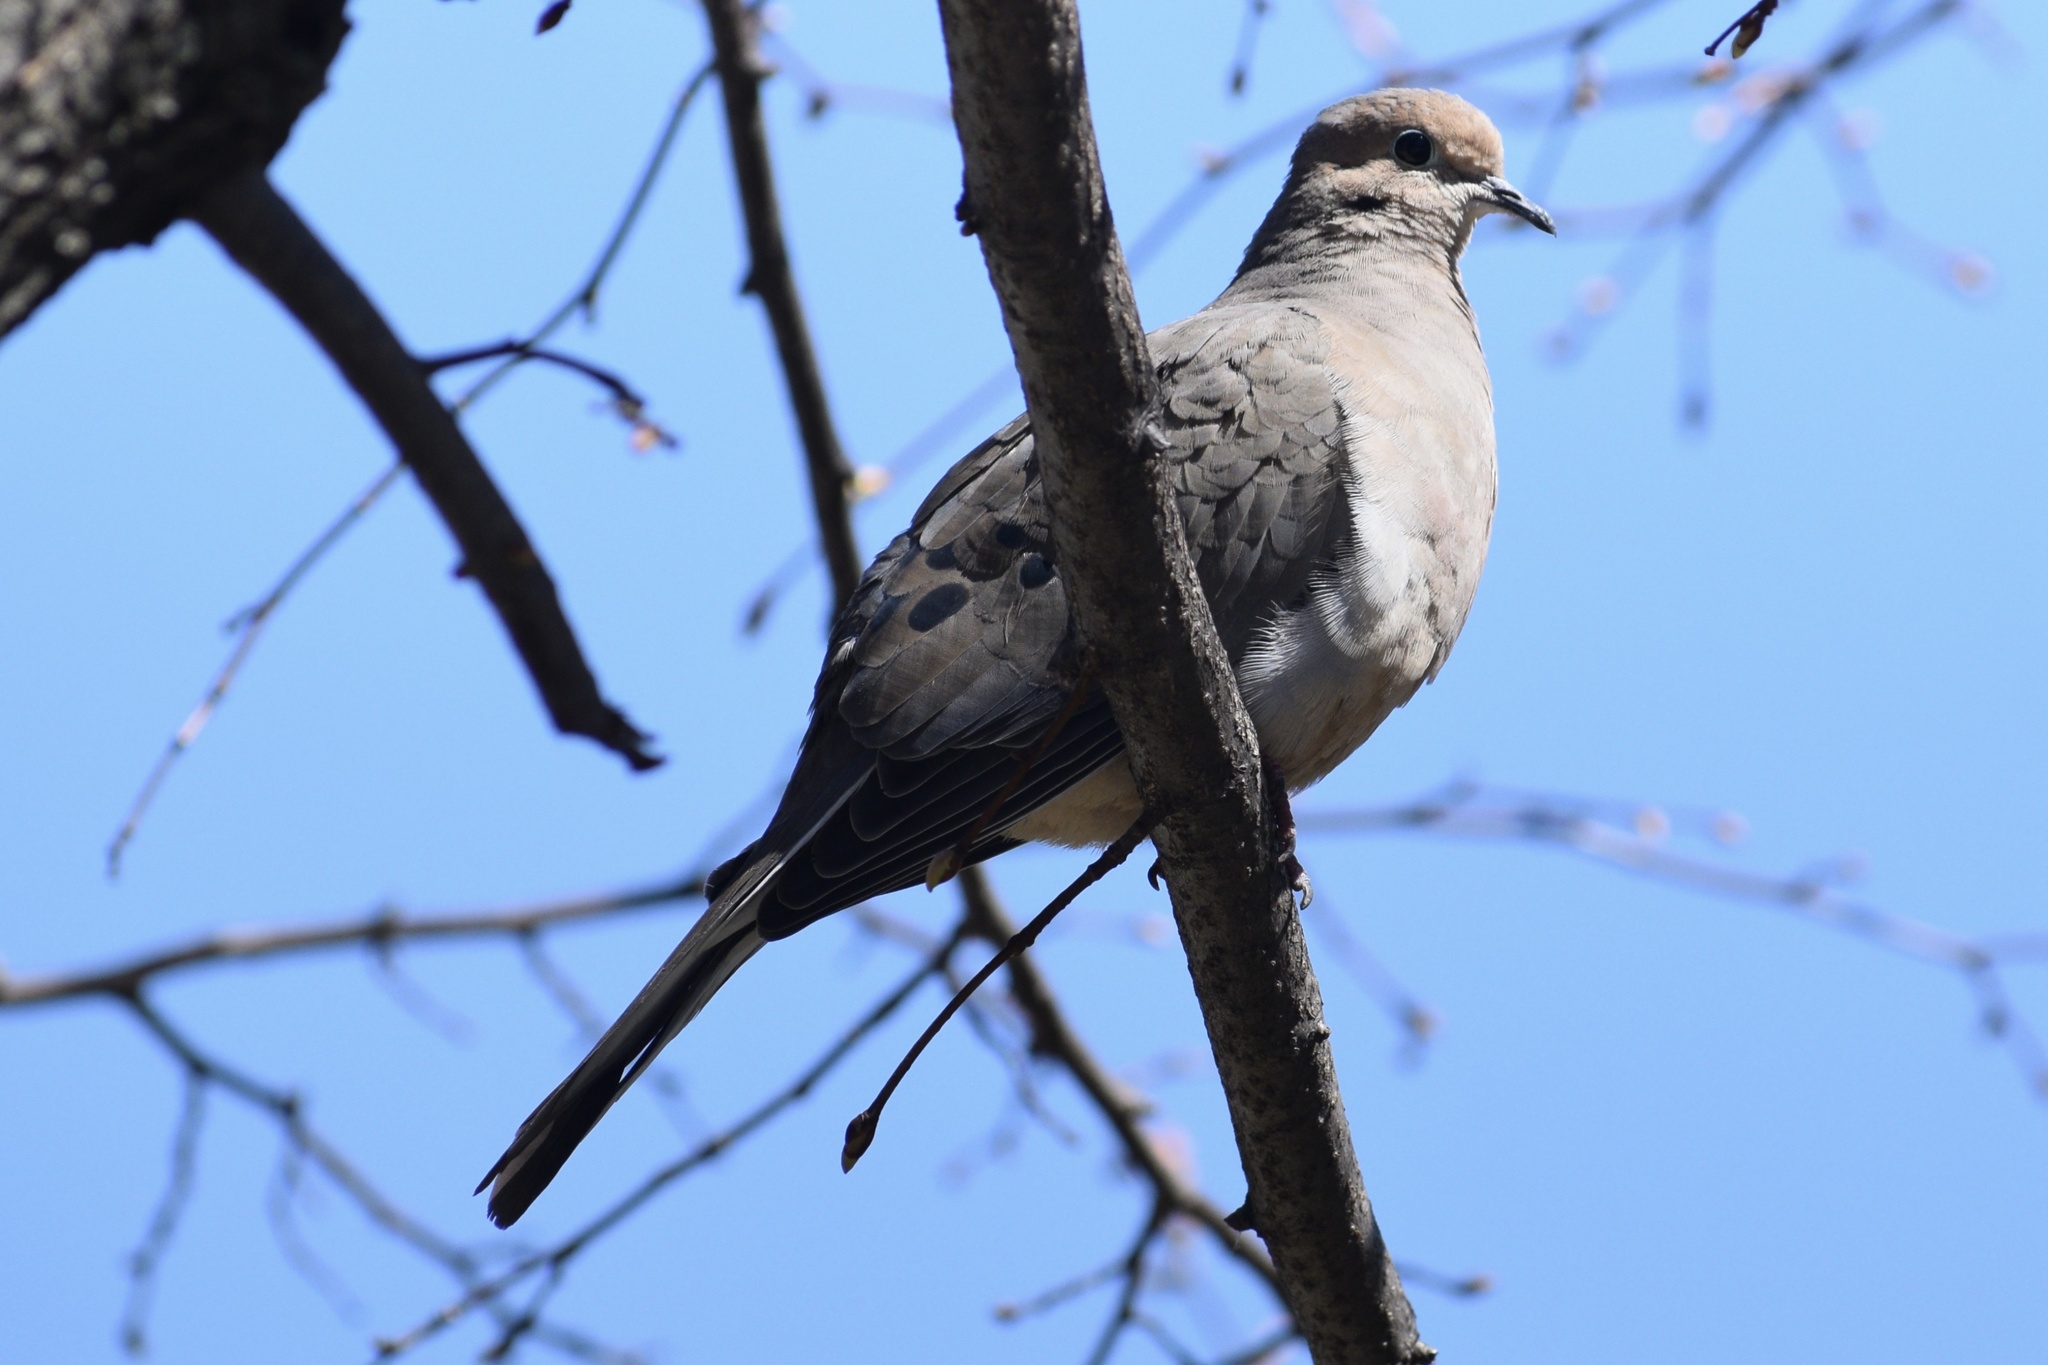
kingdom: Animalia
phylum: Chordata
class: Aves
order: Columbiformes
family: Columbidae
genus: Zenaida
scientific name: Zenaida macroura
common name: Mourning dove
